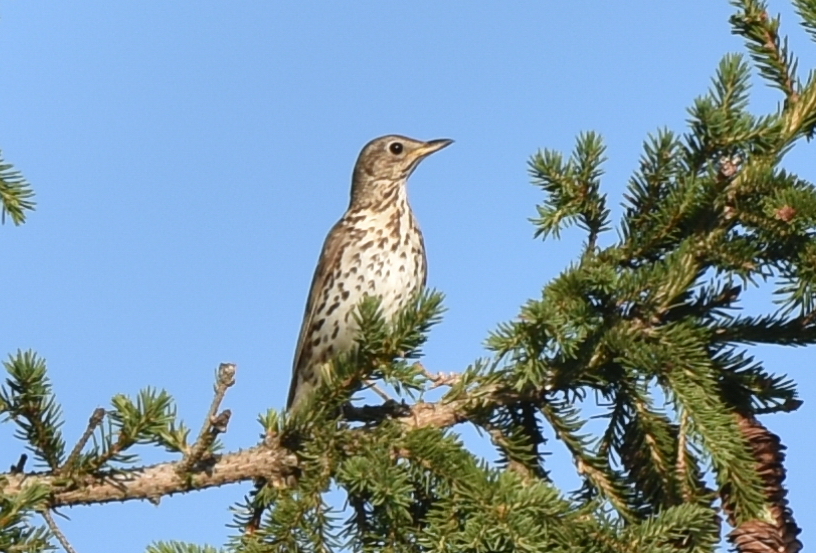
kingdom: Animalia
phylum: Chordata
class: Aves
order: Passeriformes
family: Turdidae
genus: Turdus
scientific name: Turdus philomelos
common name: Song thrush
